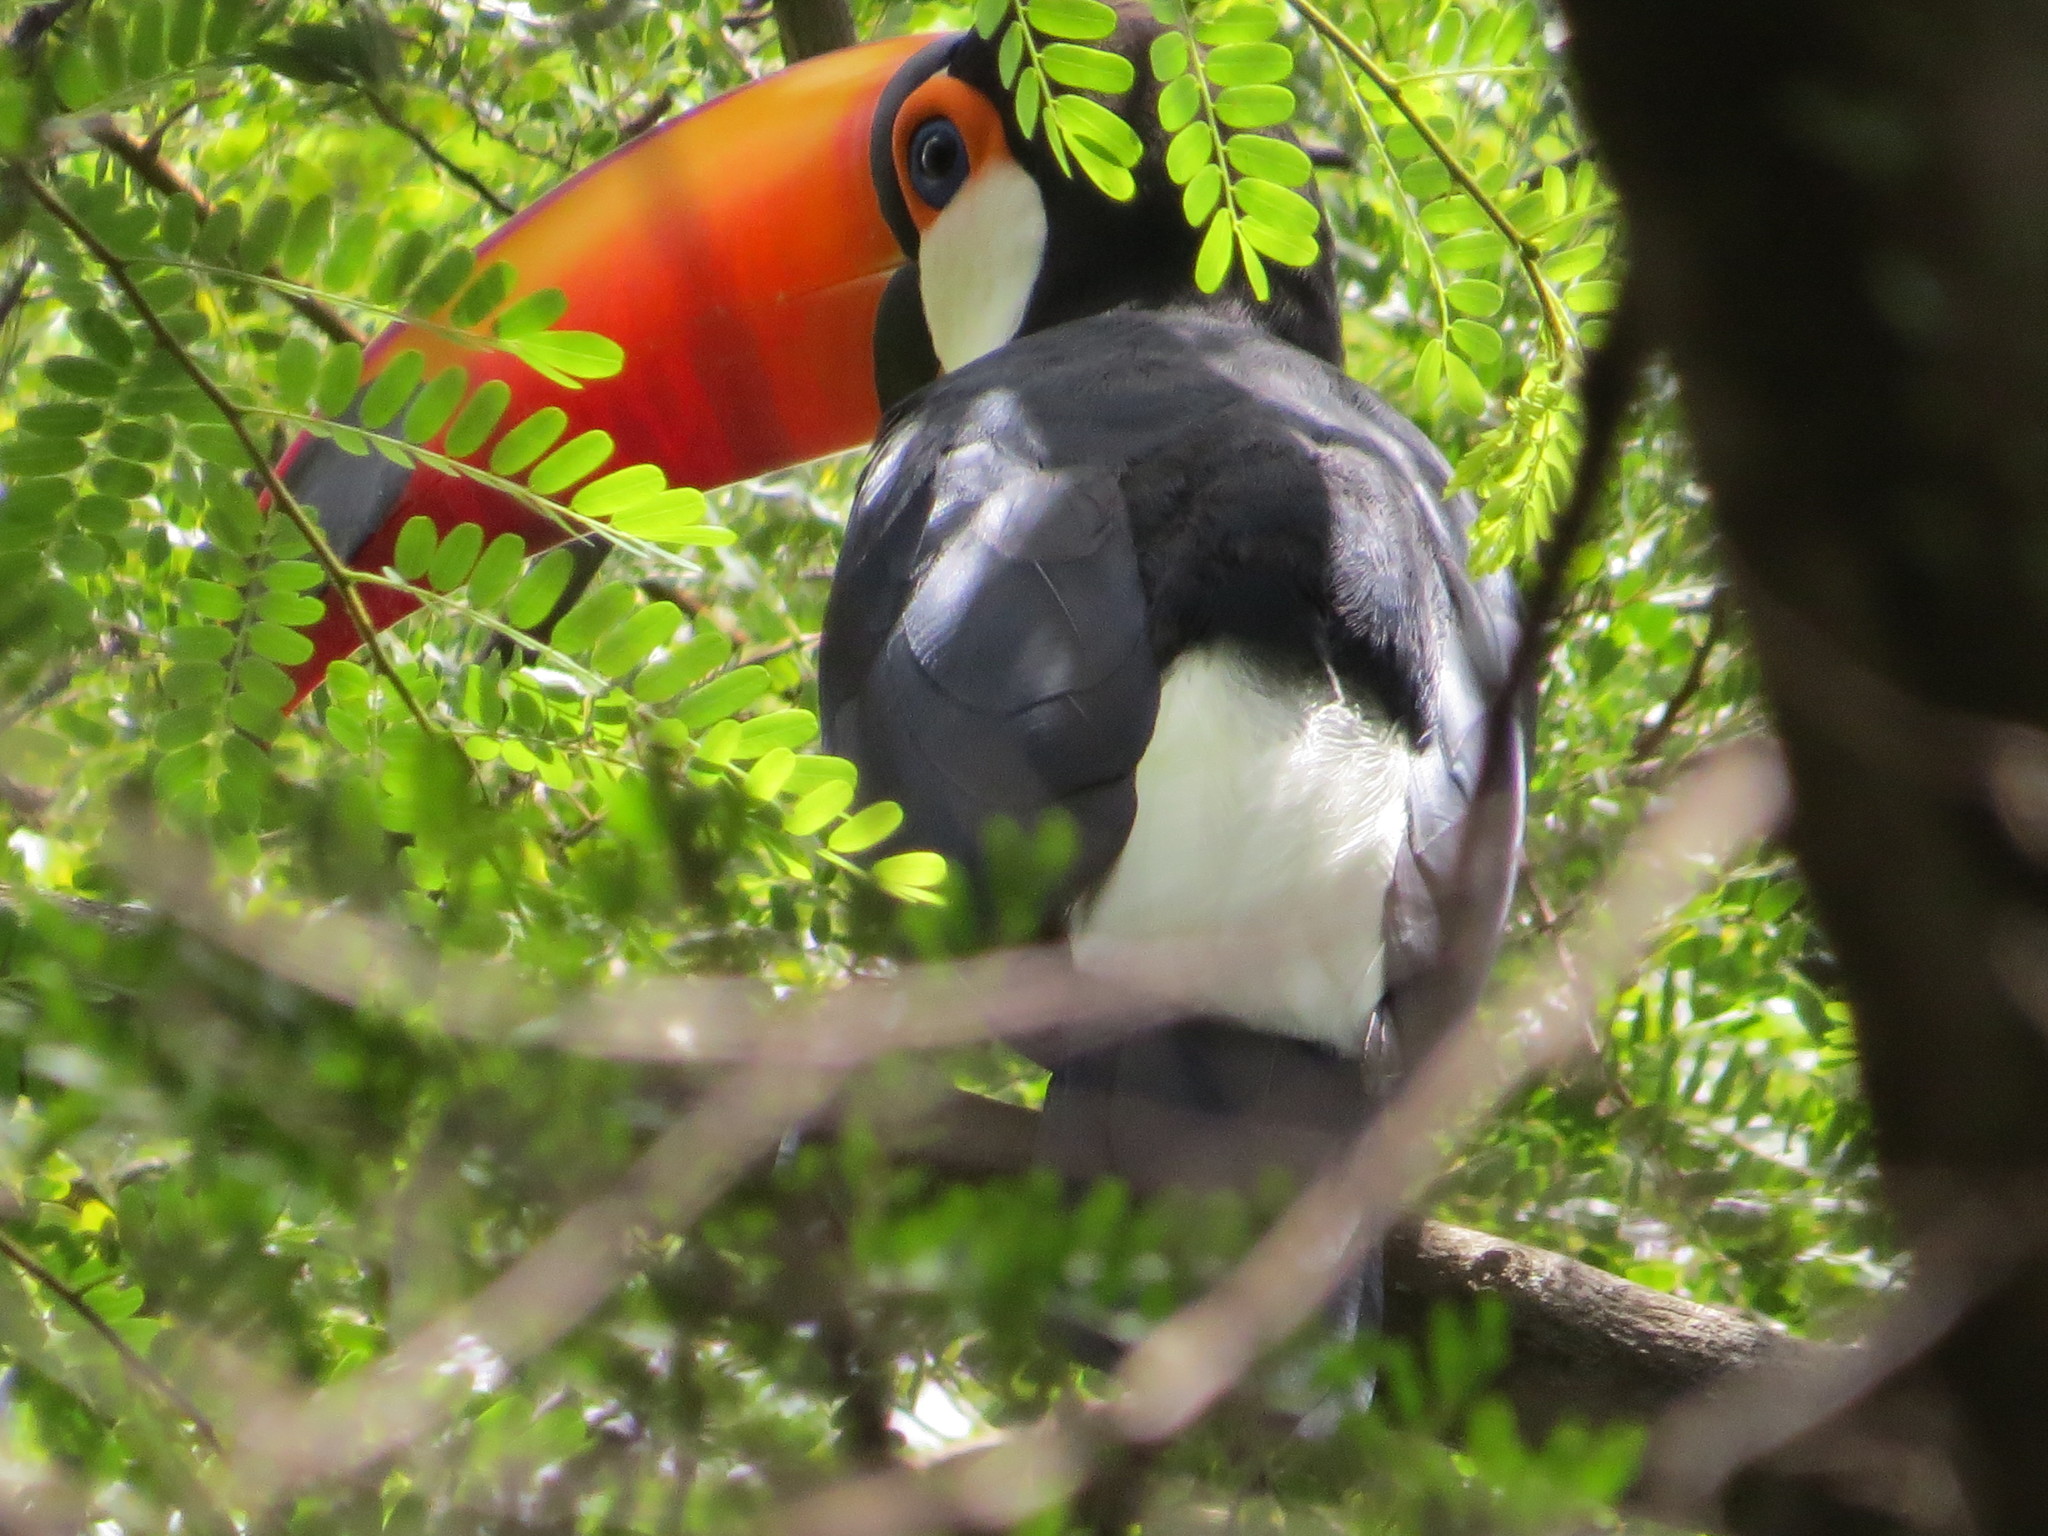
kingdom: Animalia
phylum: Chordata
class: Aves
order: Piciformes
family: Ramphastidae
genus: Ramphastos
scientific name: Ramphastos toco
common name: Toco toucan
